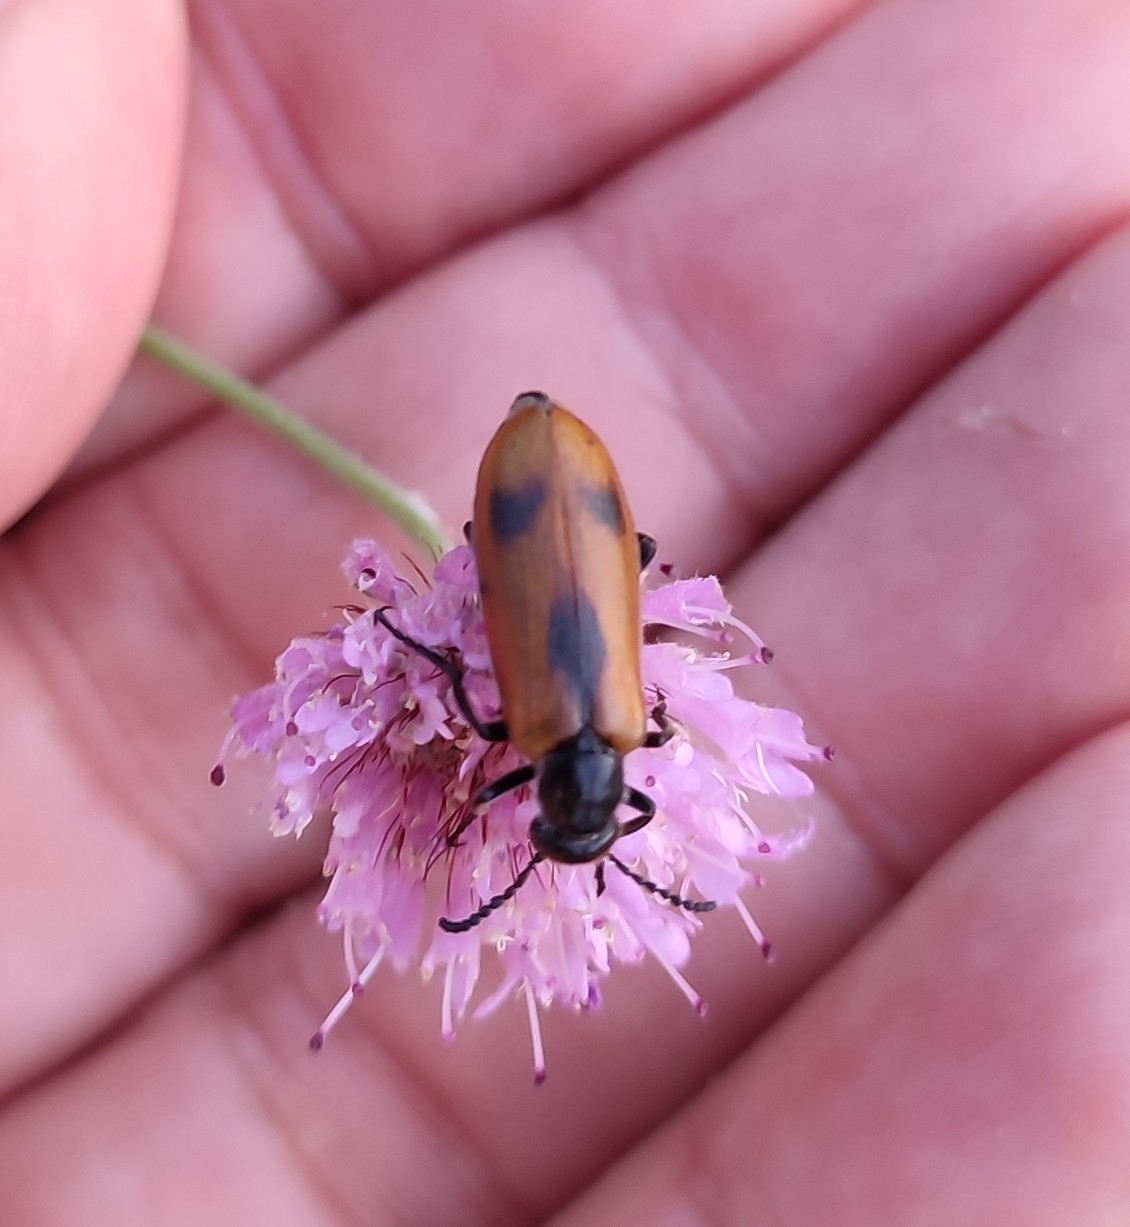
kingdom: Animalia
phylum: Arthropoda
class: Insecta
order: Coleoptera
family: Meloidae
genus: Lydus
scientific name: Lydus trimaculatus
